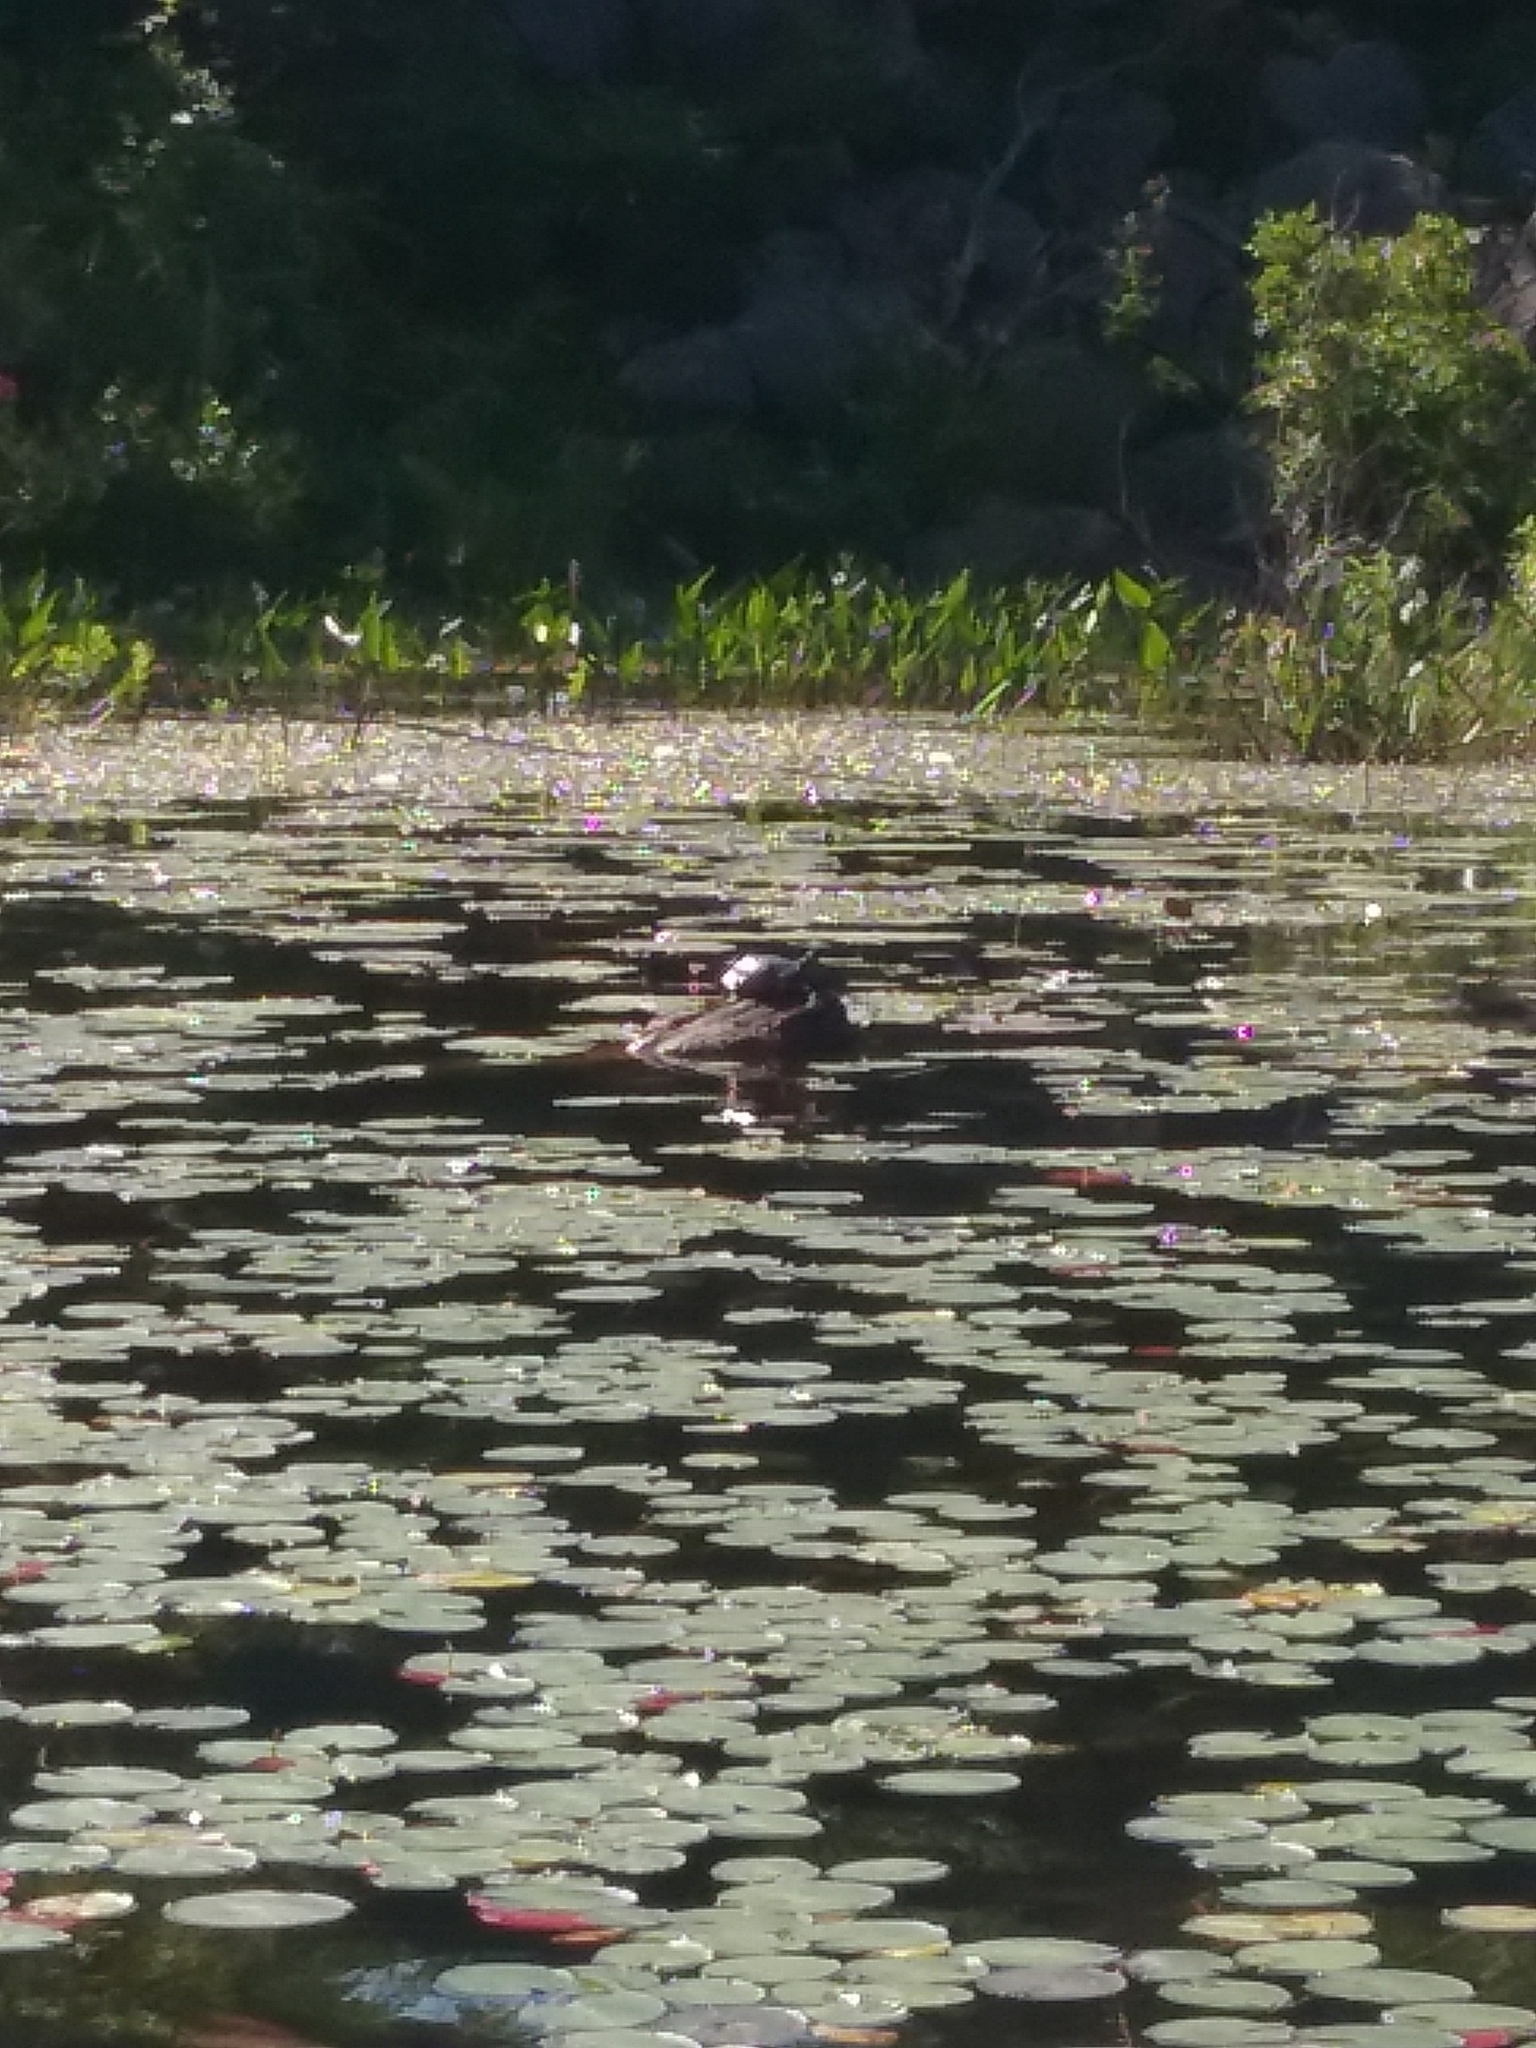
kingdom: Animalia
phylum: Chordata
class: Testudines
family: Emydidae
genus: Chrysemys
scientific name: Chrysemys picta
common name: Painted turtle
